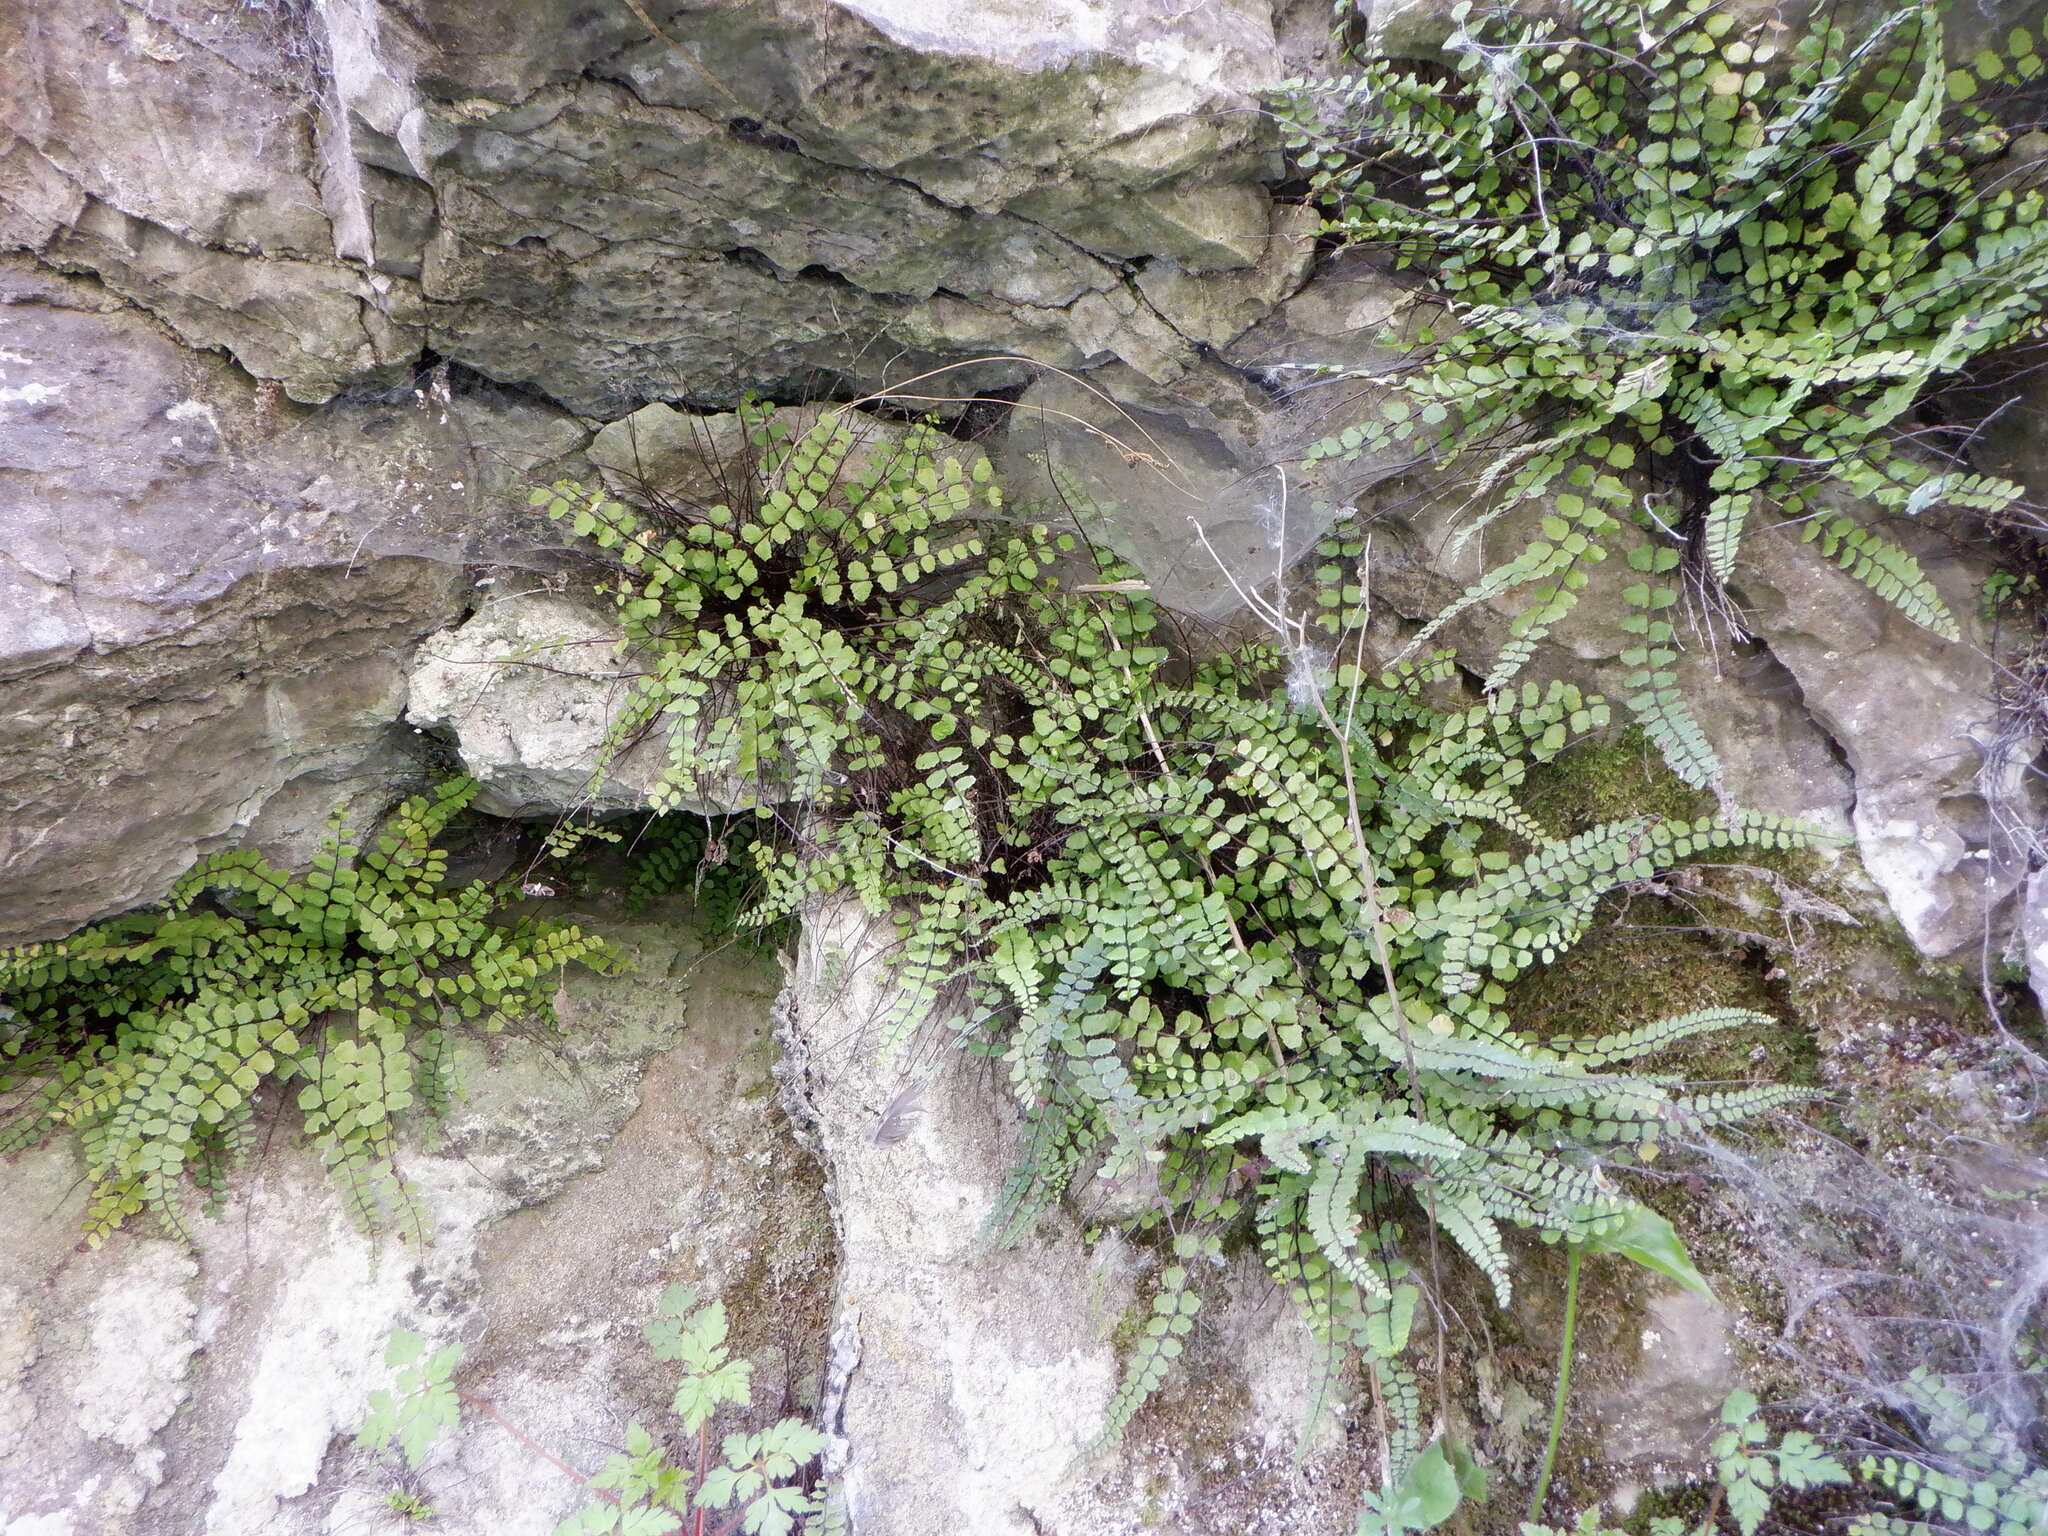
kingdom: Plantae
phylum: Tracheophyta
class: Polypodiopsida
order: Polypodiales
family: Aspleniaceae
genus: Asplenium
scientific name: Asplenium trichomanes
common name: Maidenhair spleenwort
